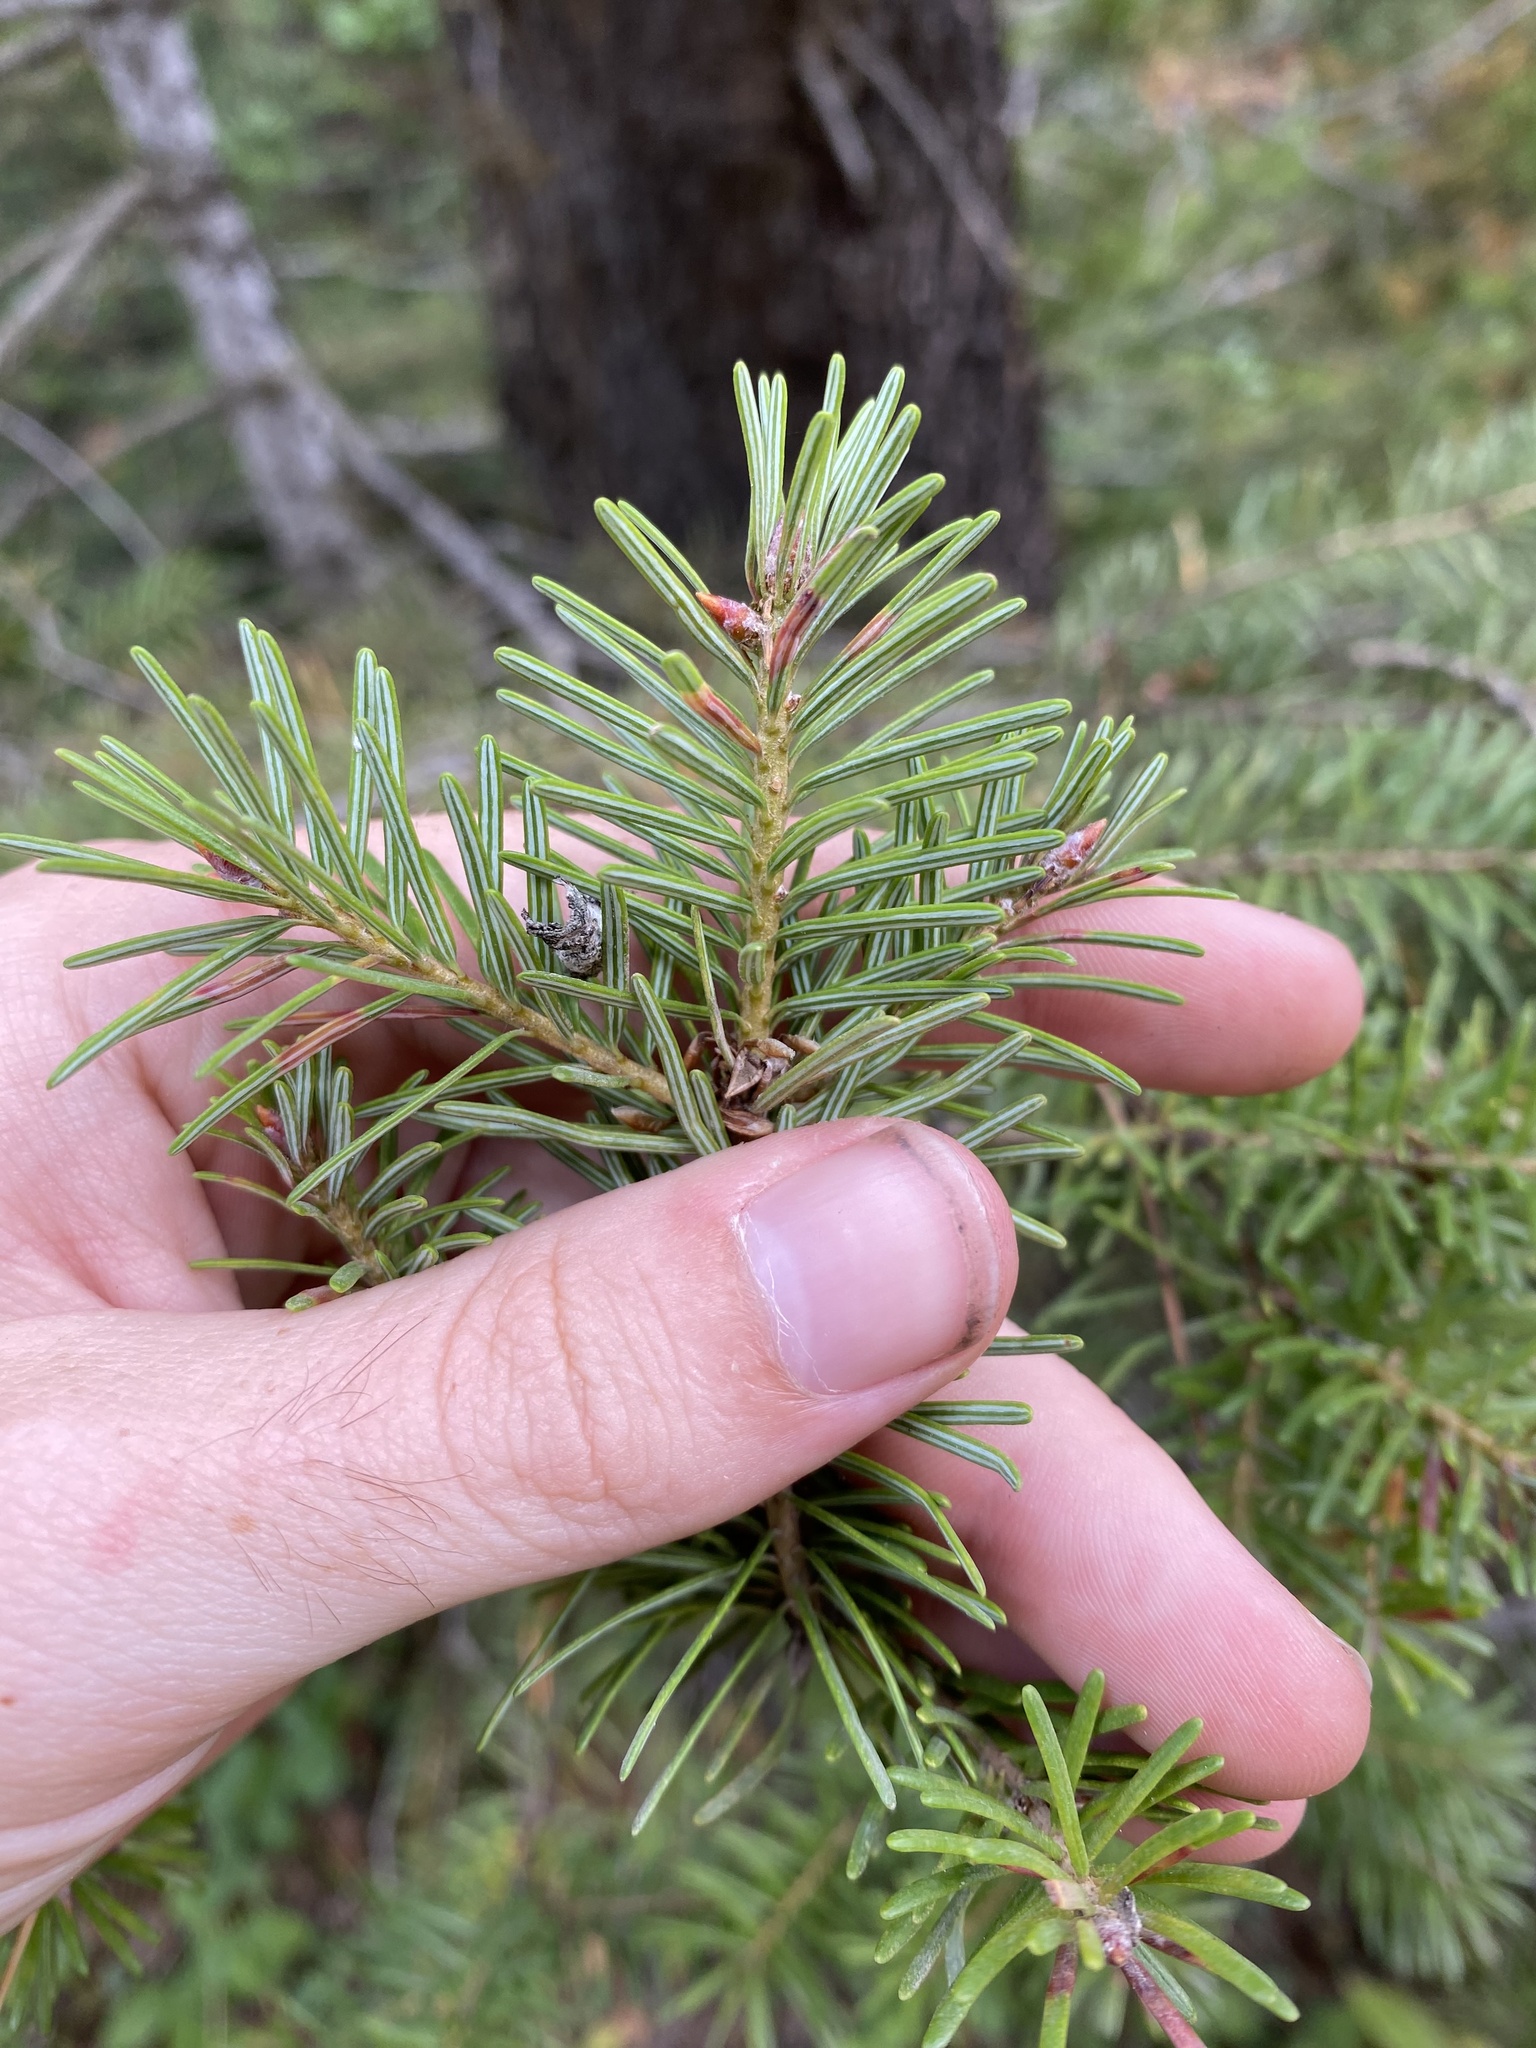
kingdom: Plantae
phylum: Tracheophyta
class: Pinopsida
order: Pinales
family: Pinaceae
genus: Pseudotsuga
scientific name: Pseudotsuga menziesii
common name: Douglas fir
